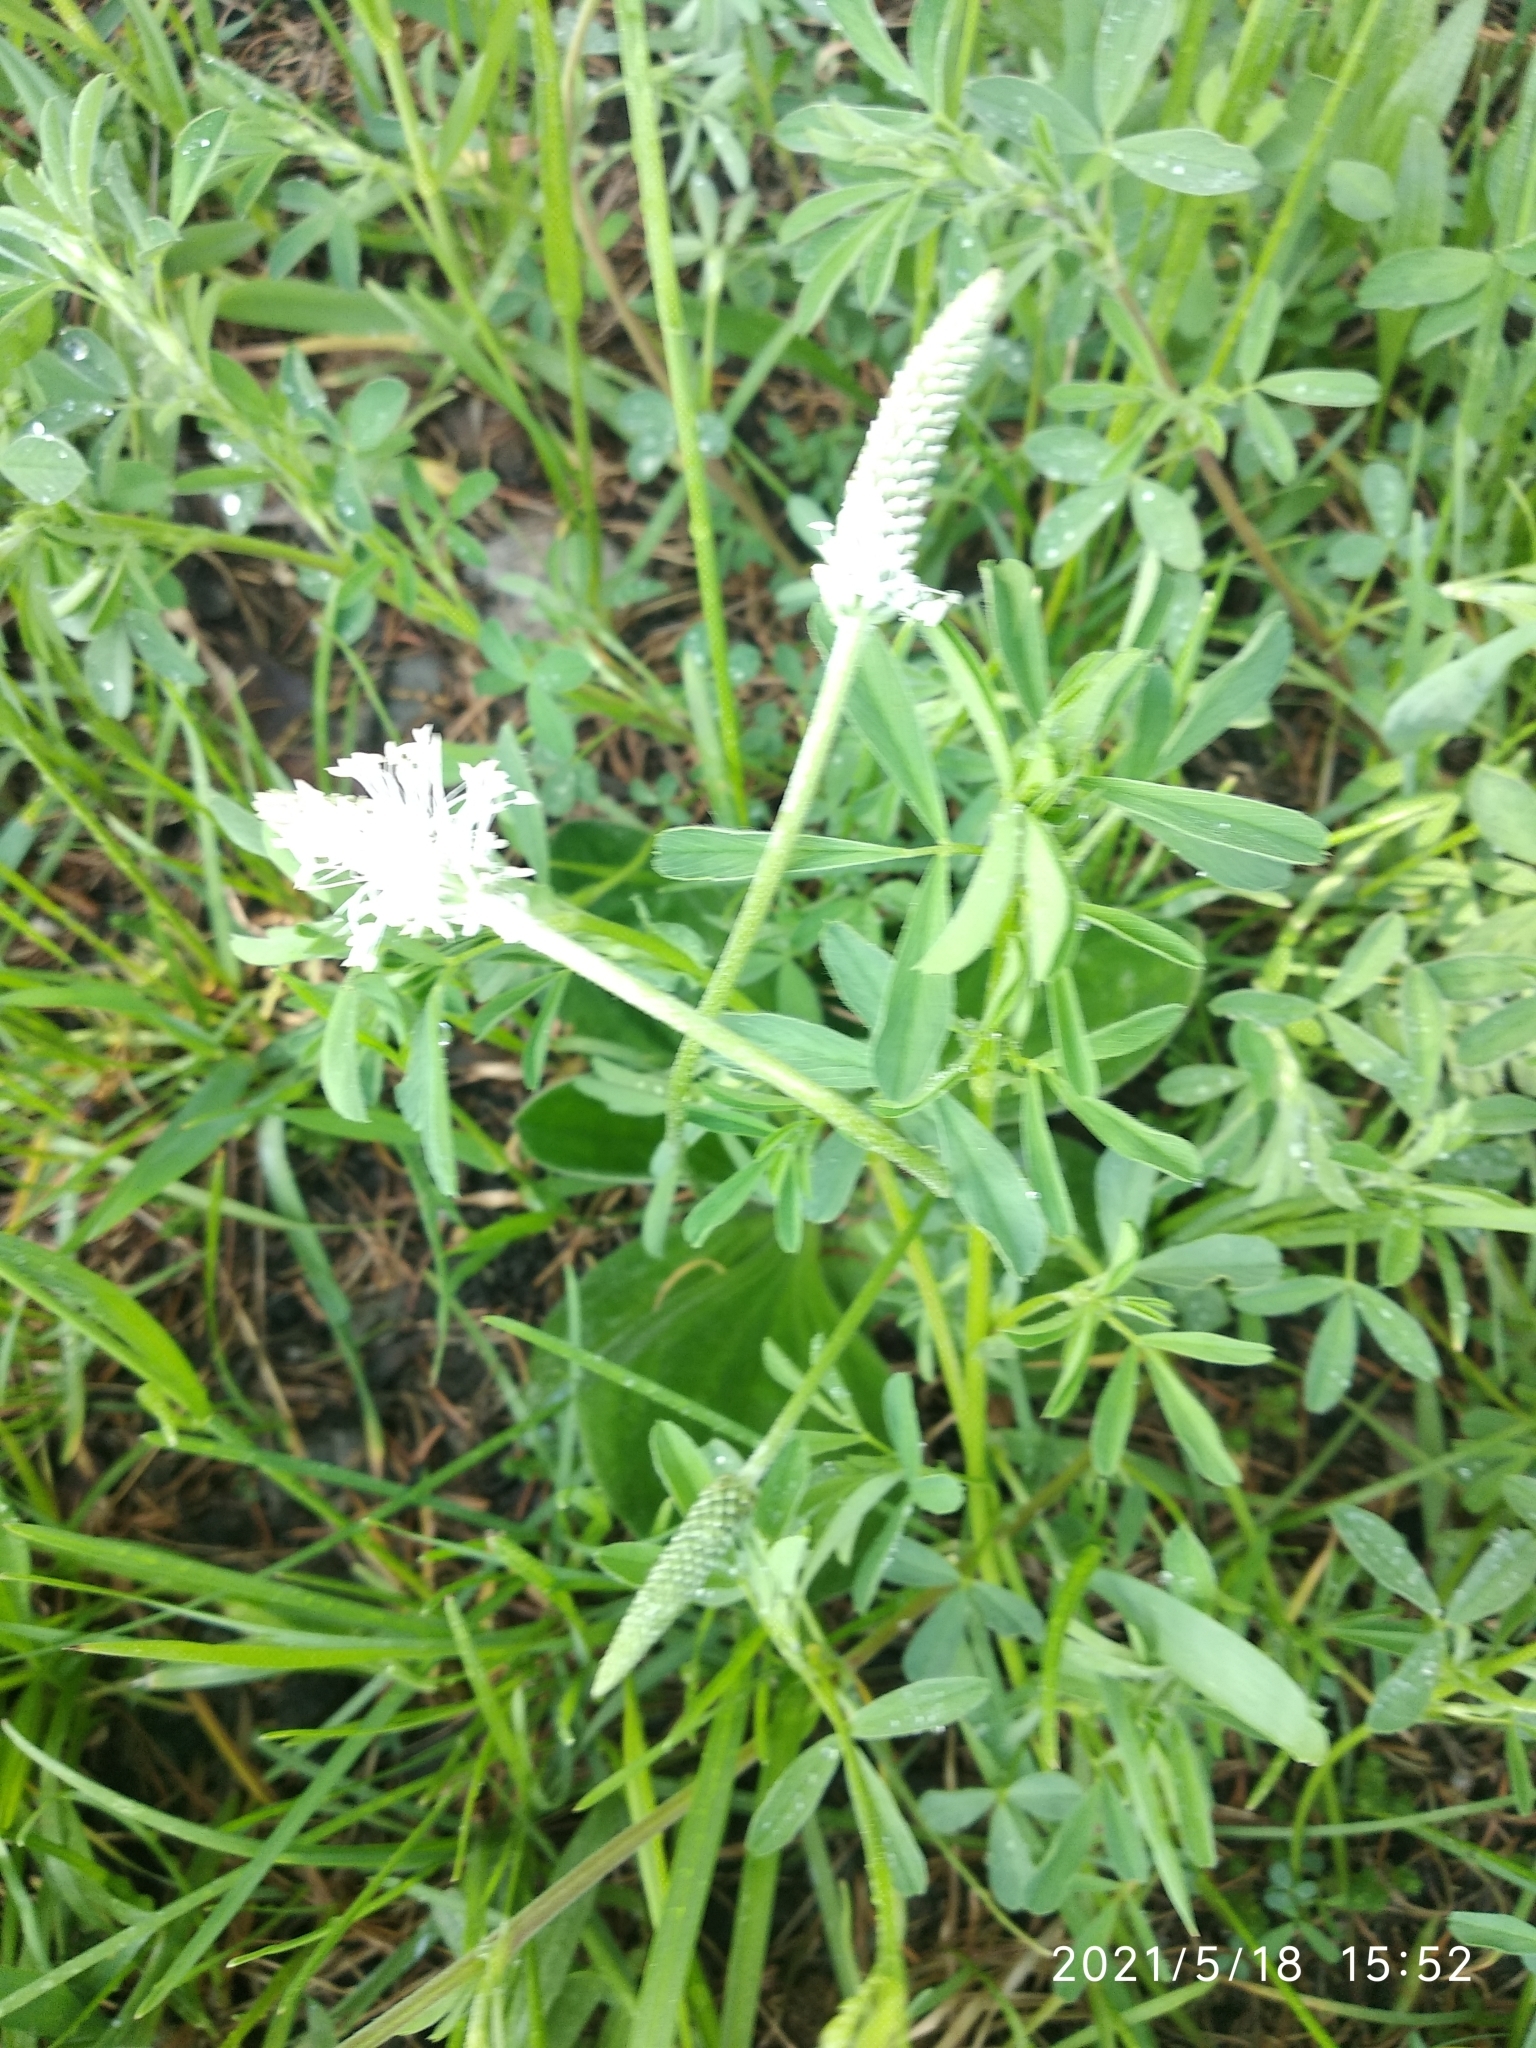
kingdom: Plantae
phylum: Tracheophyta
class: Magnoliopsida
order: Lamiales
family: Plantaginaceae
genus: Plantago
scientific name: Plantago media
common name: Hoary plantain
